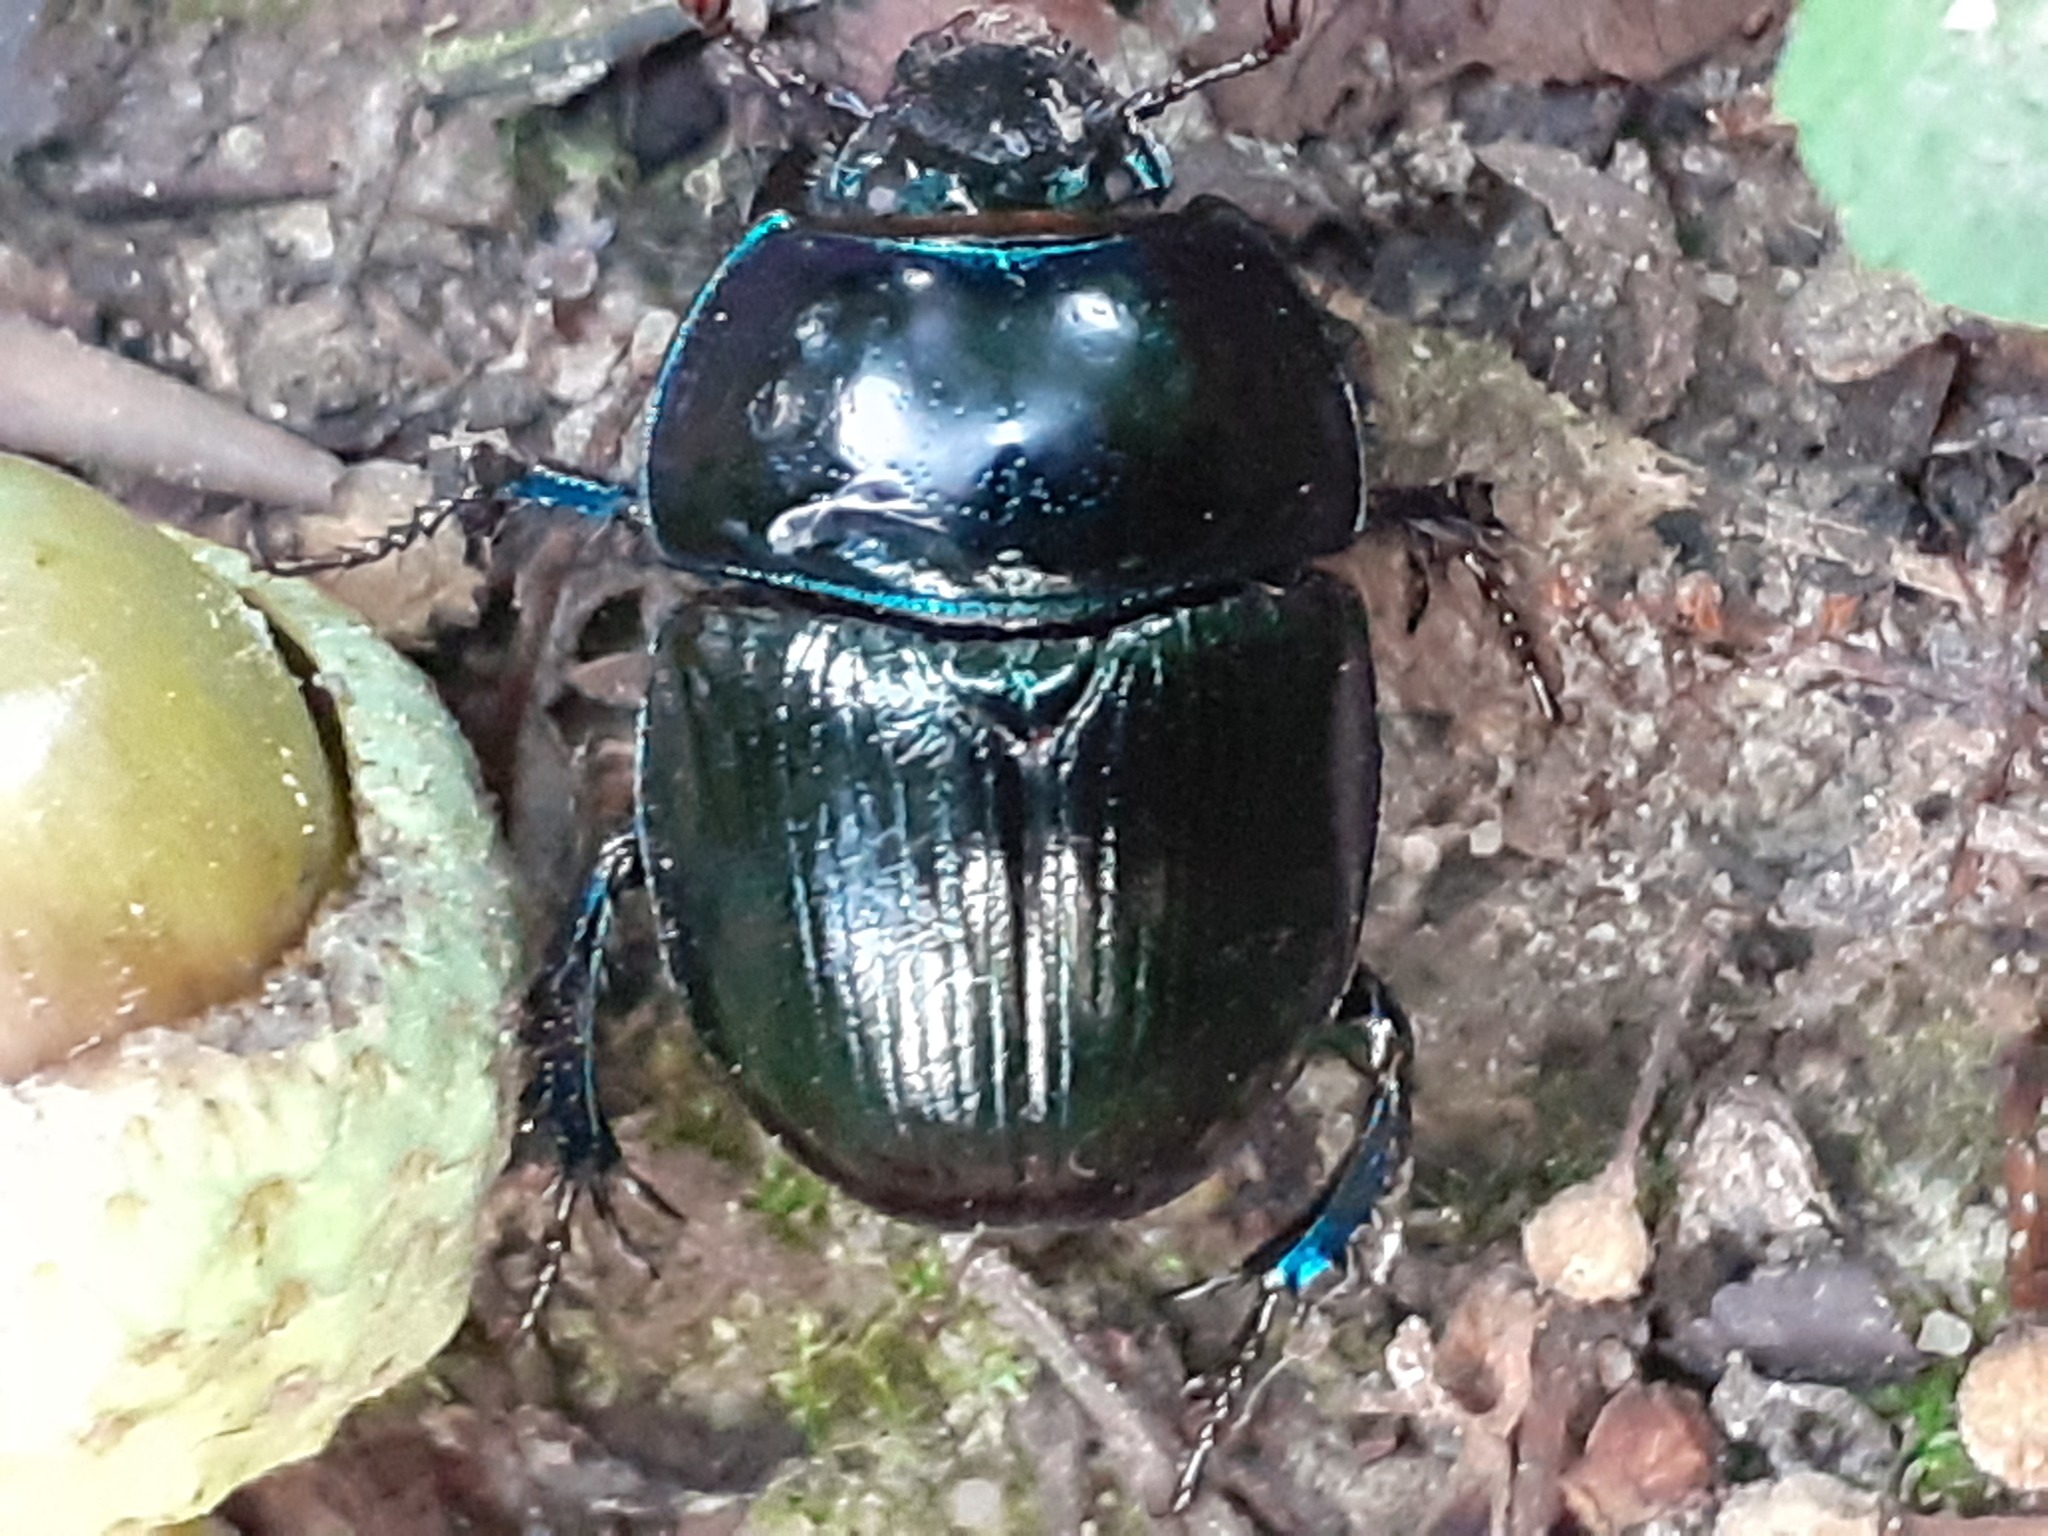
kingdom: Animalia
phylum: Arthropoda
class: Insecta
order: Coleoptera
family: Geotrupidae
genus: Anoplotrupes
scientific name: Anoplotrupes stercorosus
